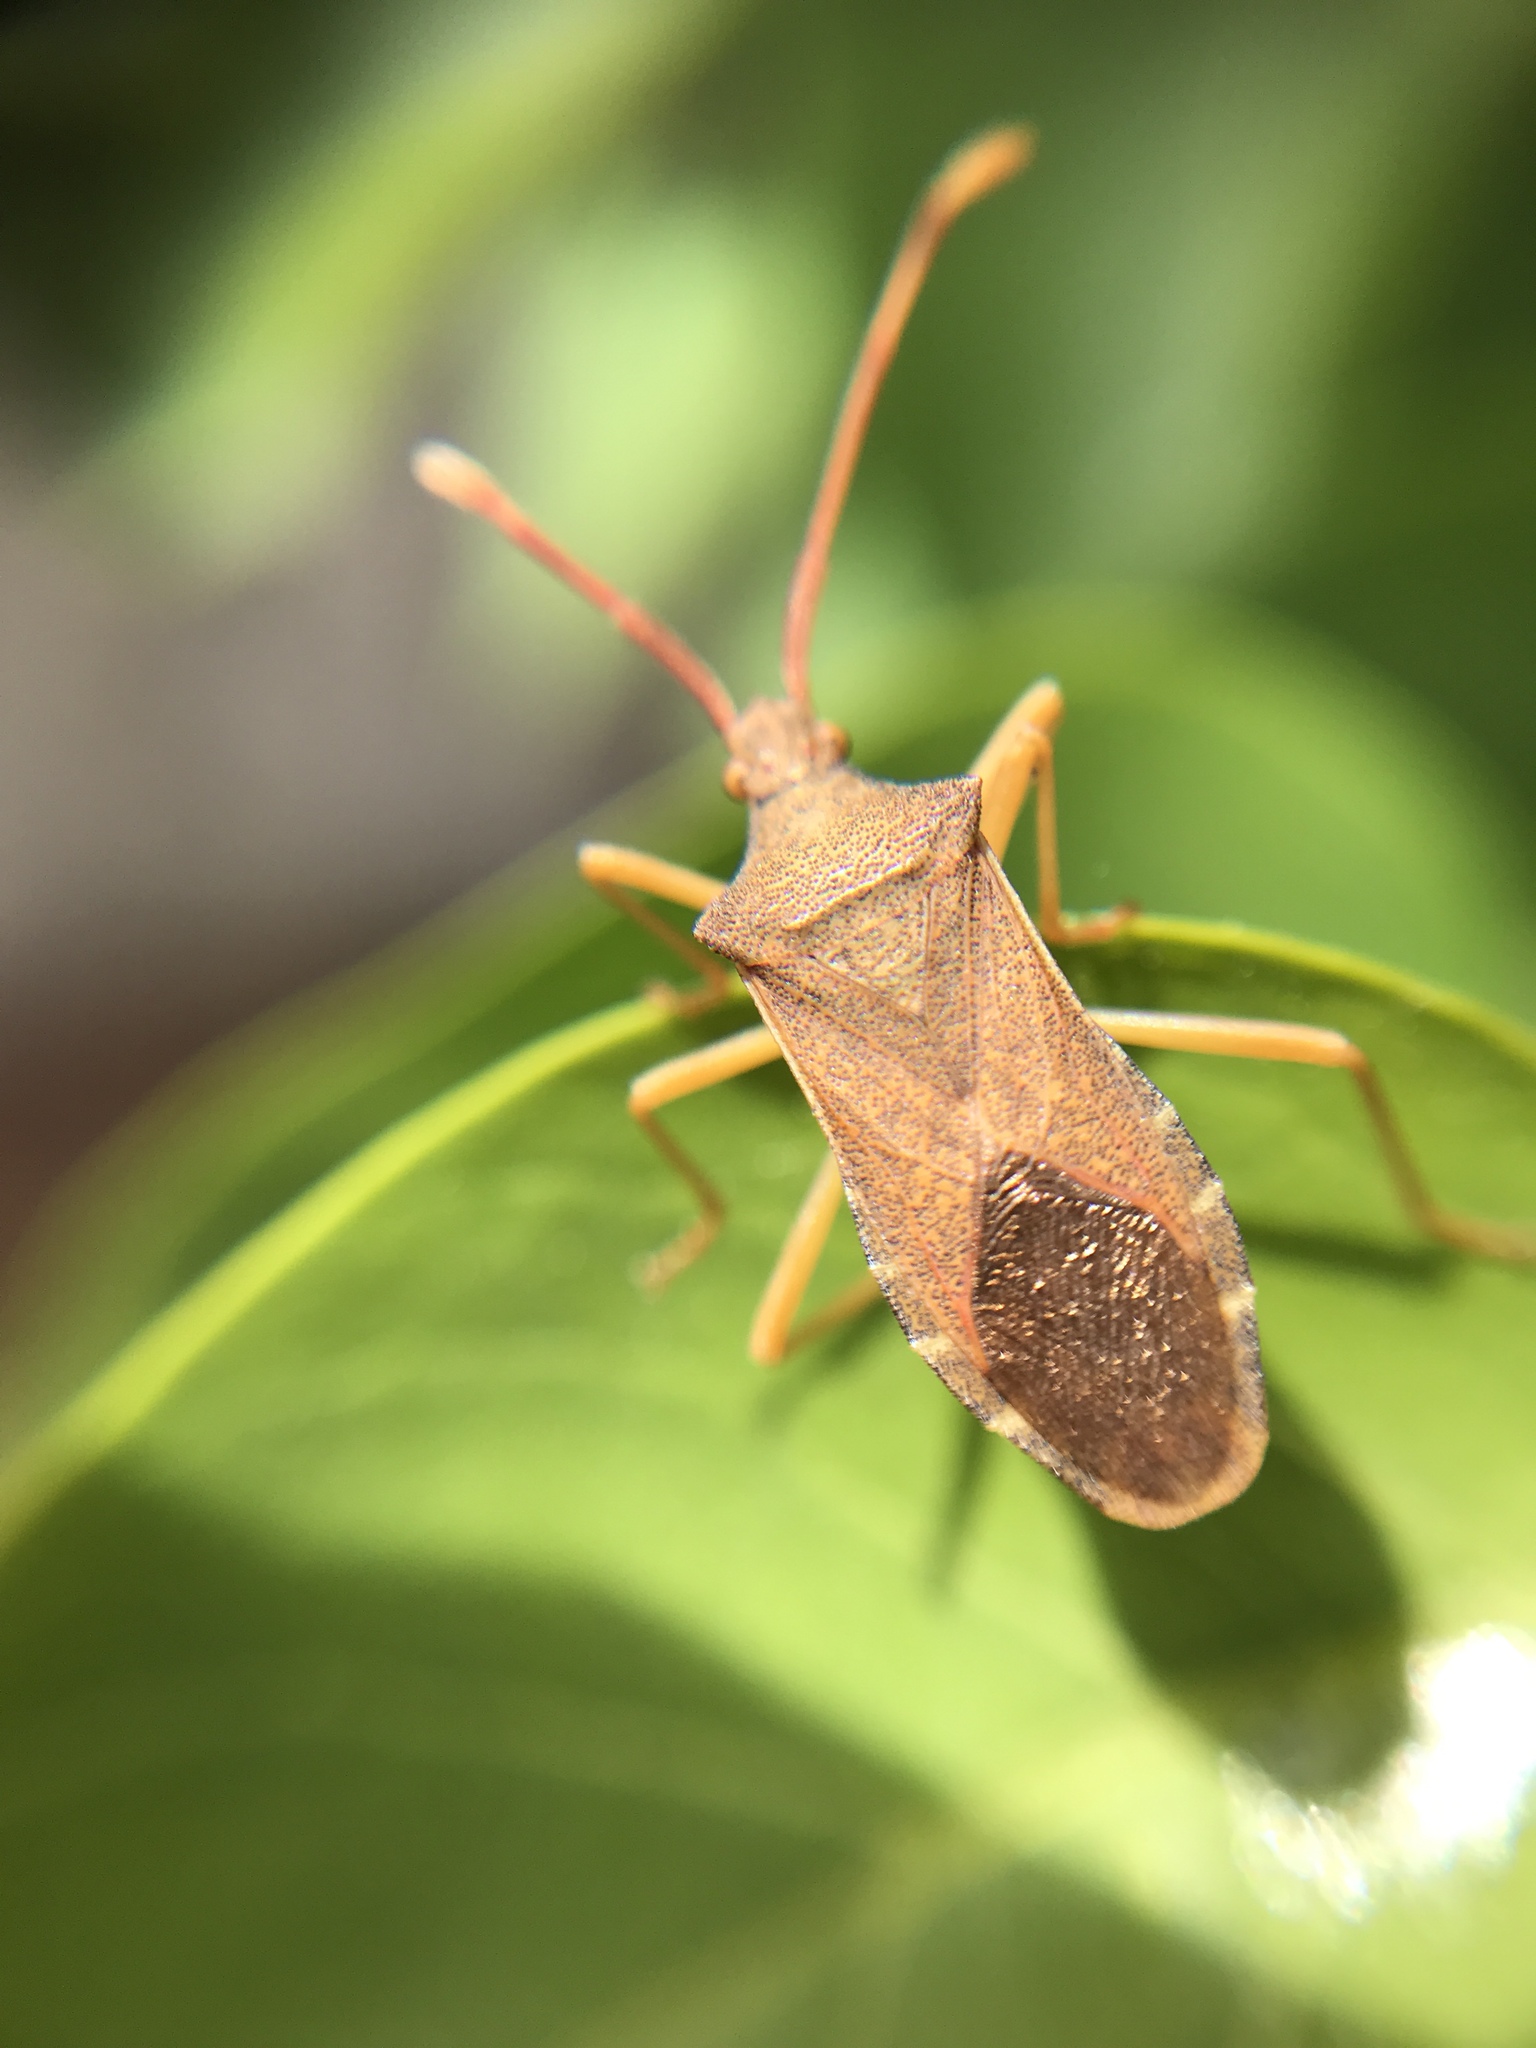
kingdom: Animalia
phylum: Arthropoda
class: Insecta
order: Hemiptera
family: Coreidae
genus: Gonocerus
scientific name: Gonocerus acuteangulatus
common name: Box bug
